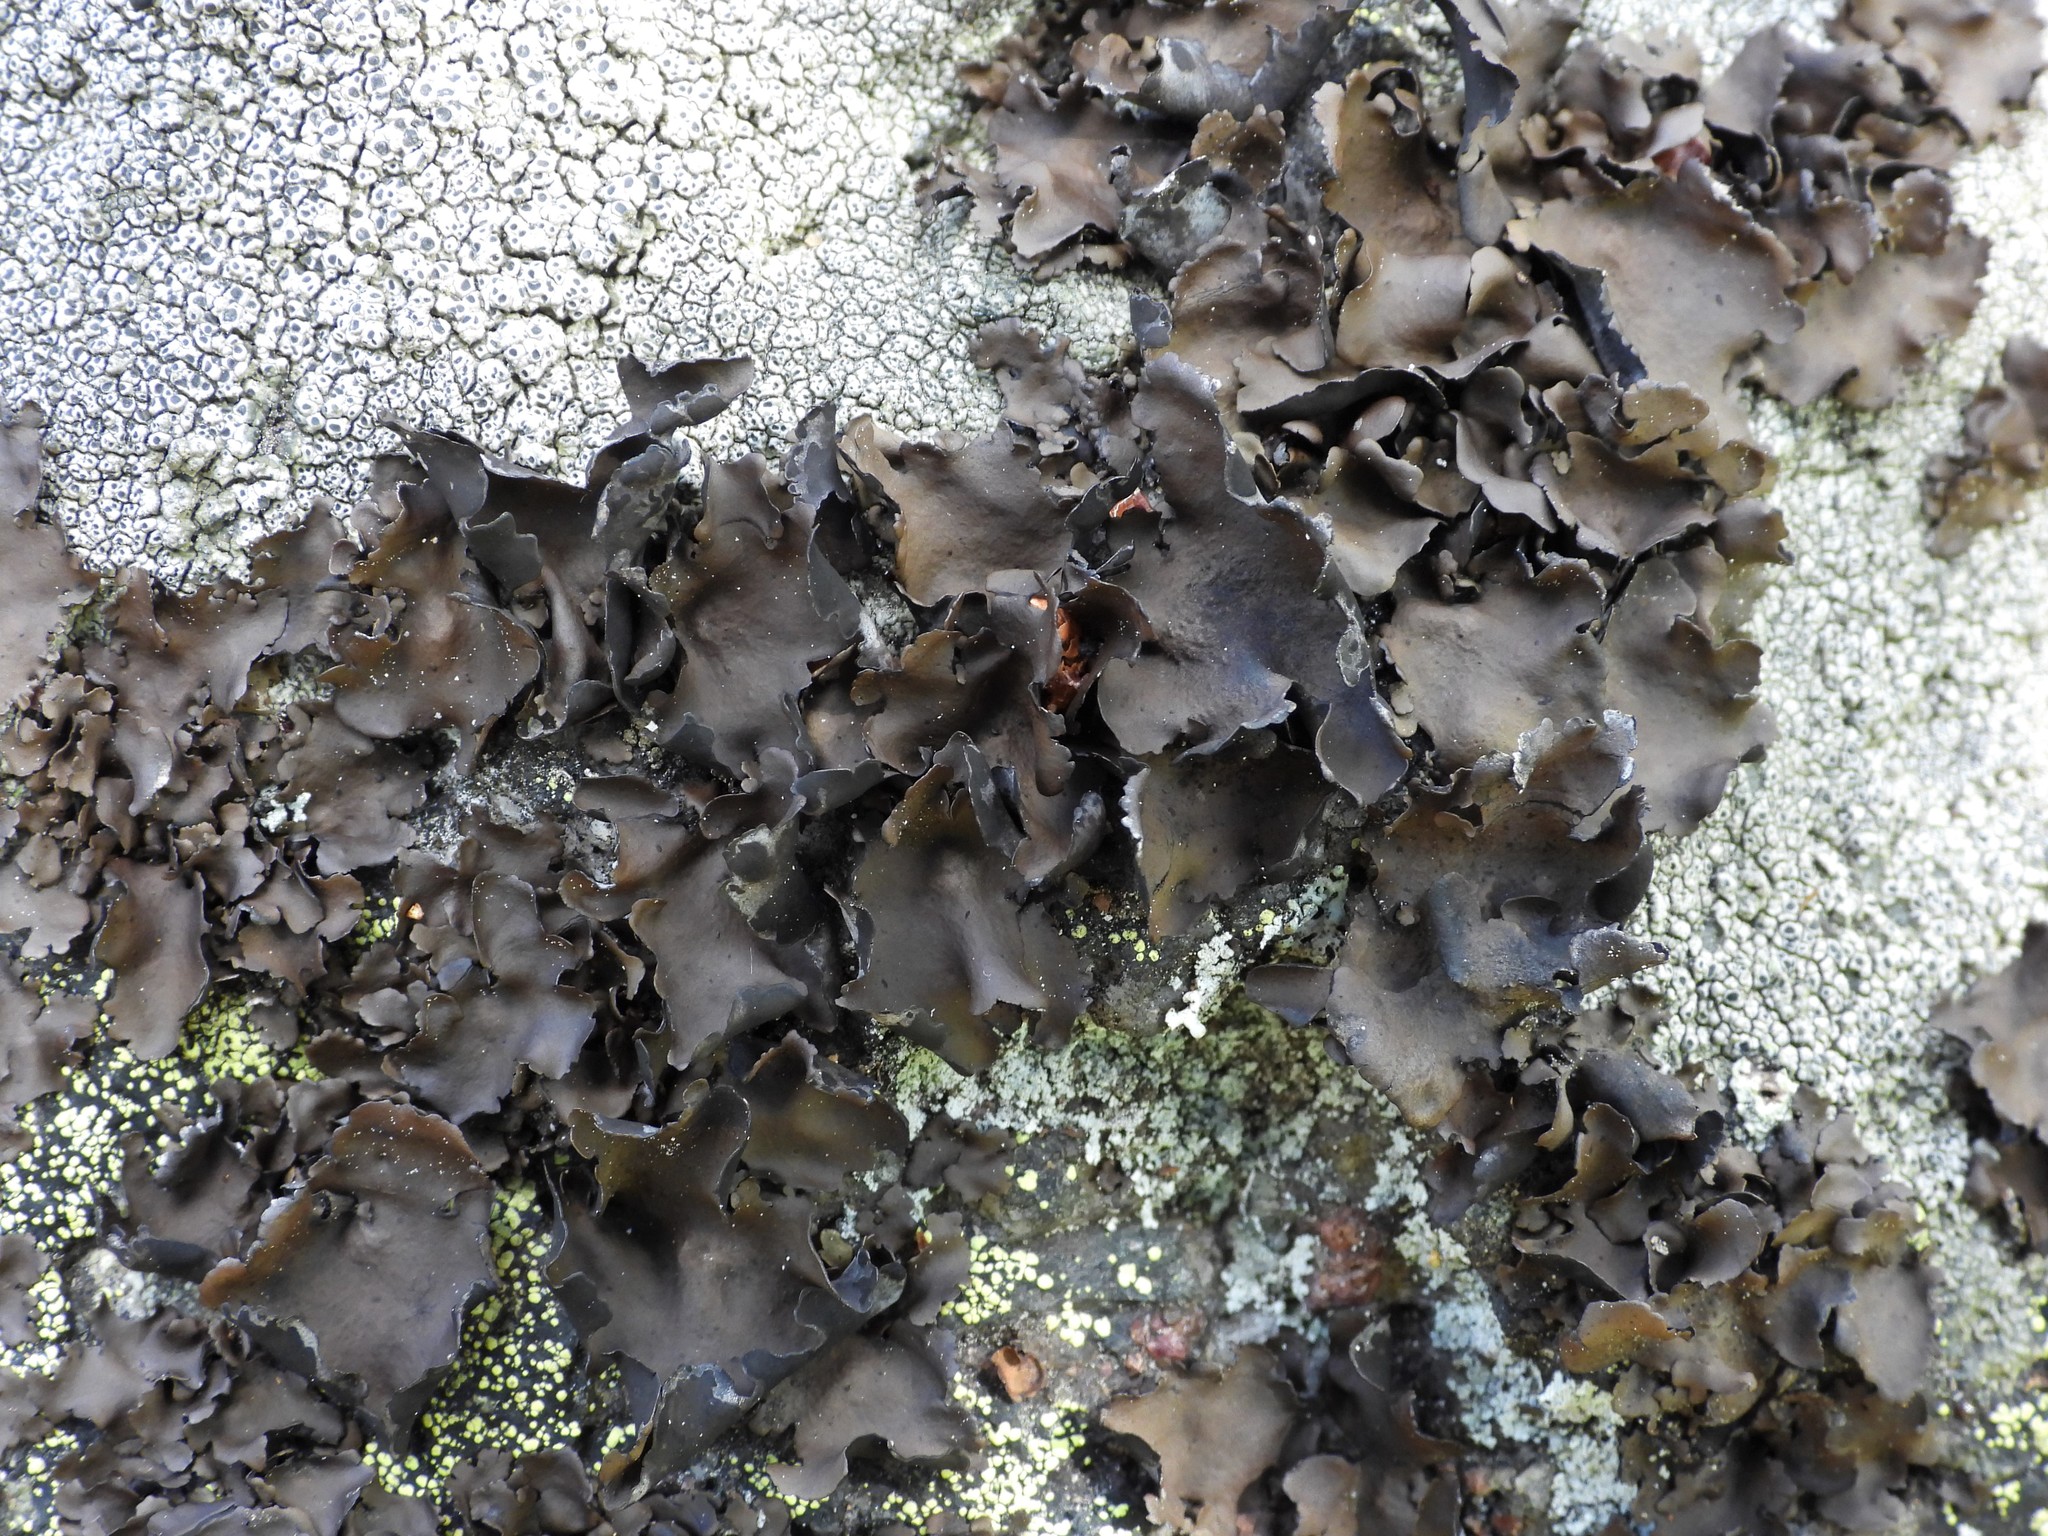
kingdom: Fungi
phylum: Ascomycota
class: Lecanoromycetes
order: Umbilicariales
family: Umbilicariaceae
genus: Umbilicaria
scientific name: Umbilicaria polyphylla
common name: Petalled rocktripe lichen
